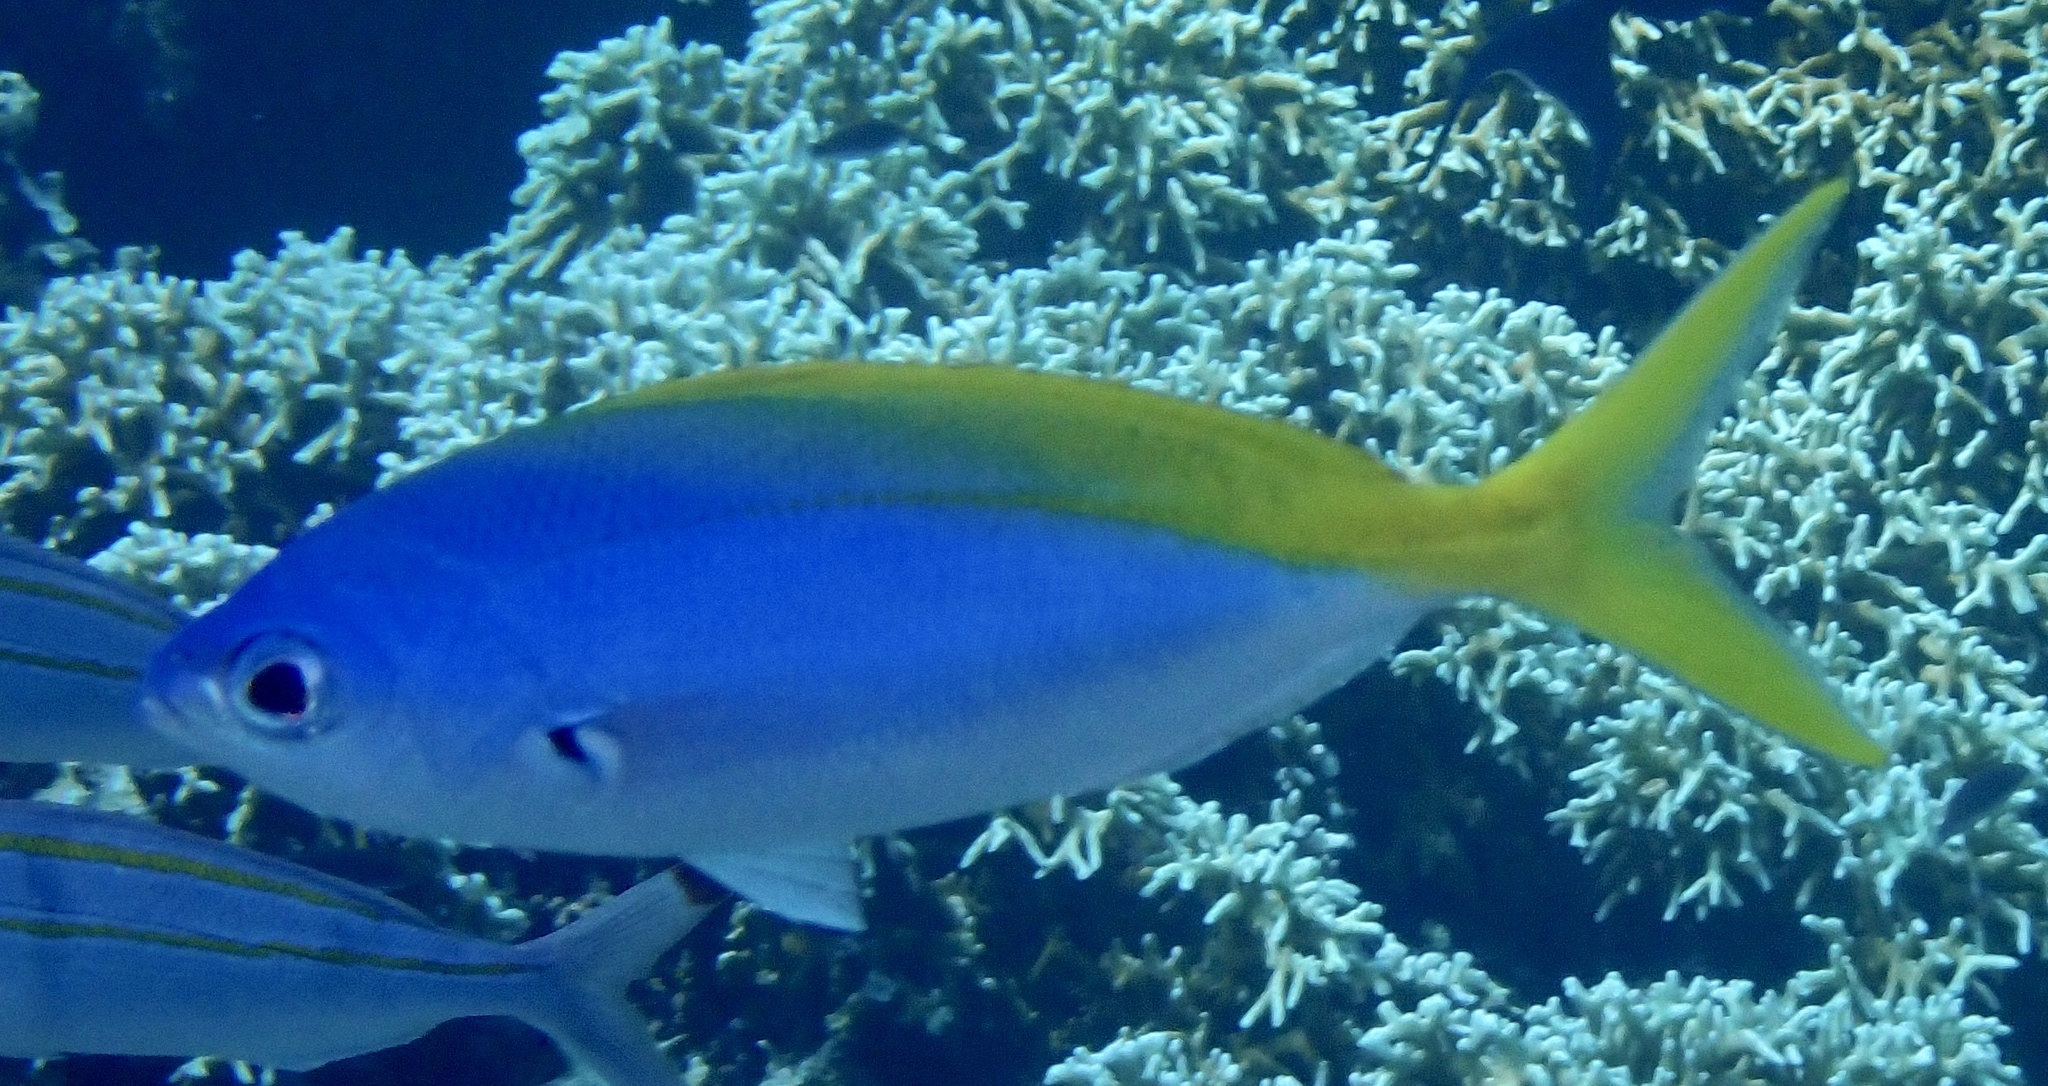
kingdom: Animalia
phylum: Chordata
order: Perciformes
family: Caesionidae
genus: Caesio
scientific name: Caesio teres
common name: Yellow and blueback fusilier
